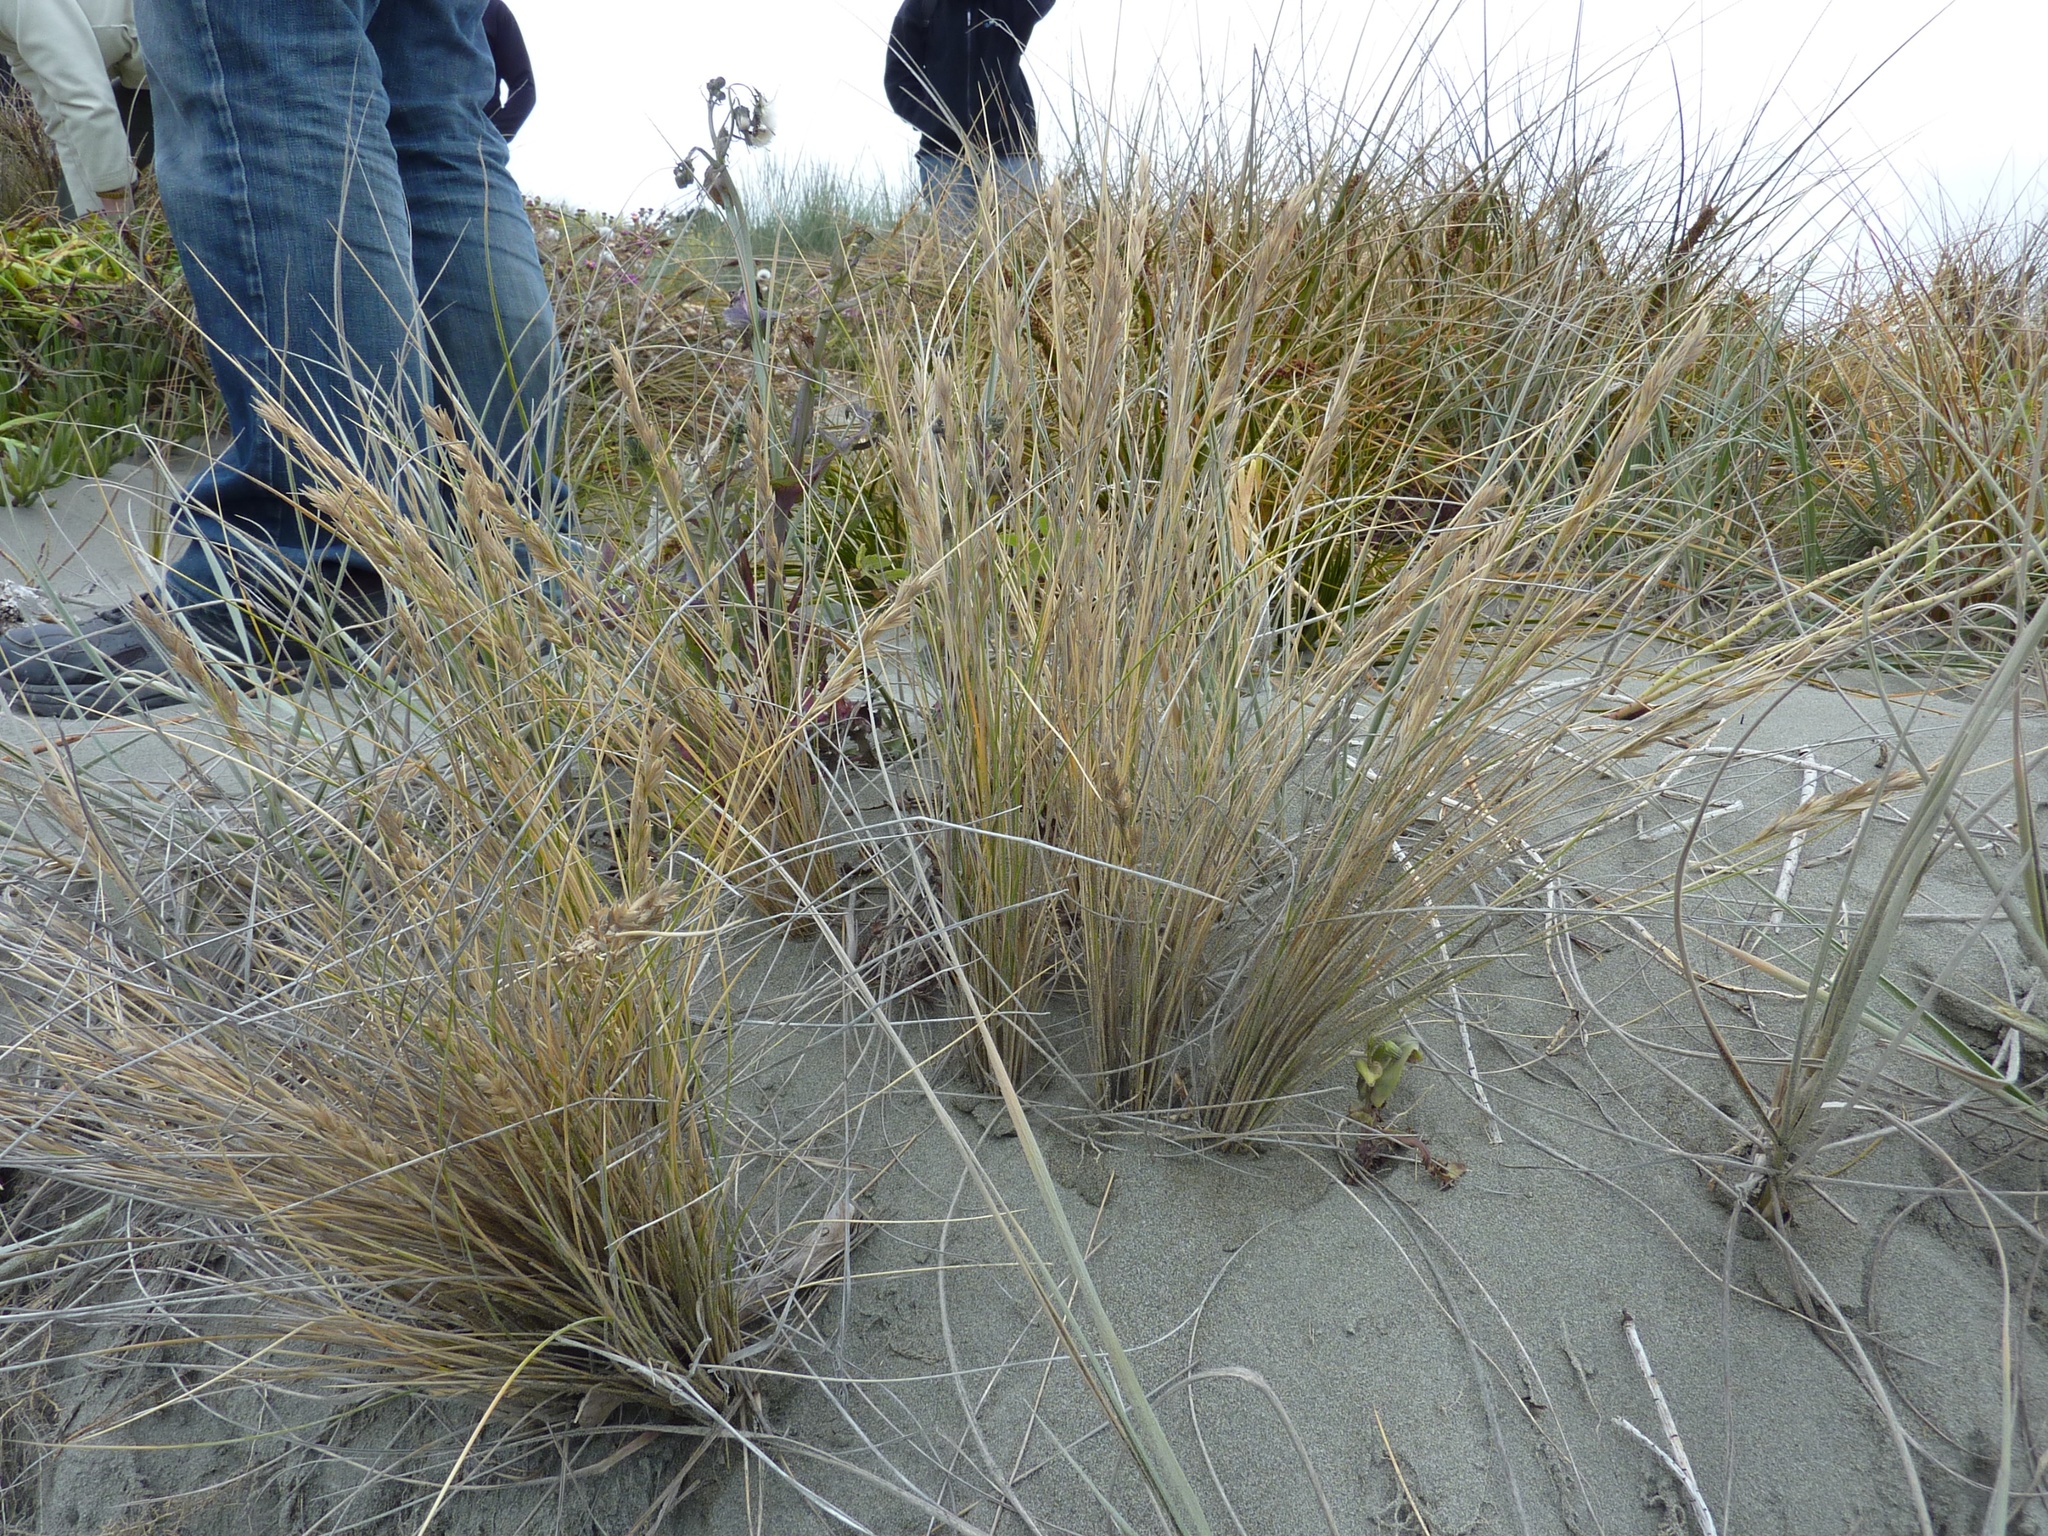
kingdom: Plantae
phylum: Tracheophyta
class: Liliopsida
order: Poales
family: Poaceae
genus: Poa
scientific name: Poa billardierei
